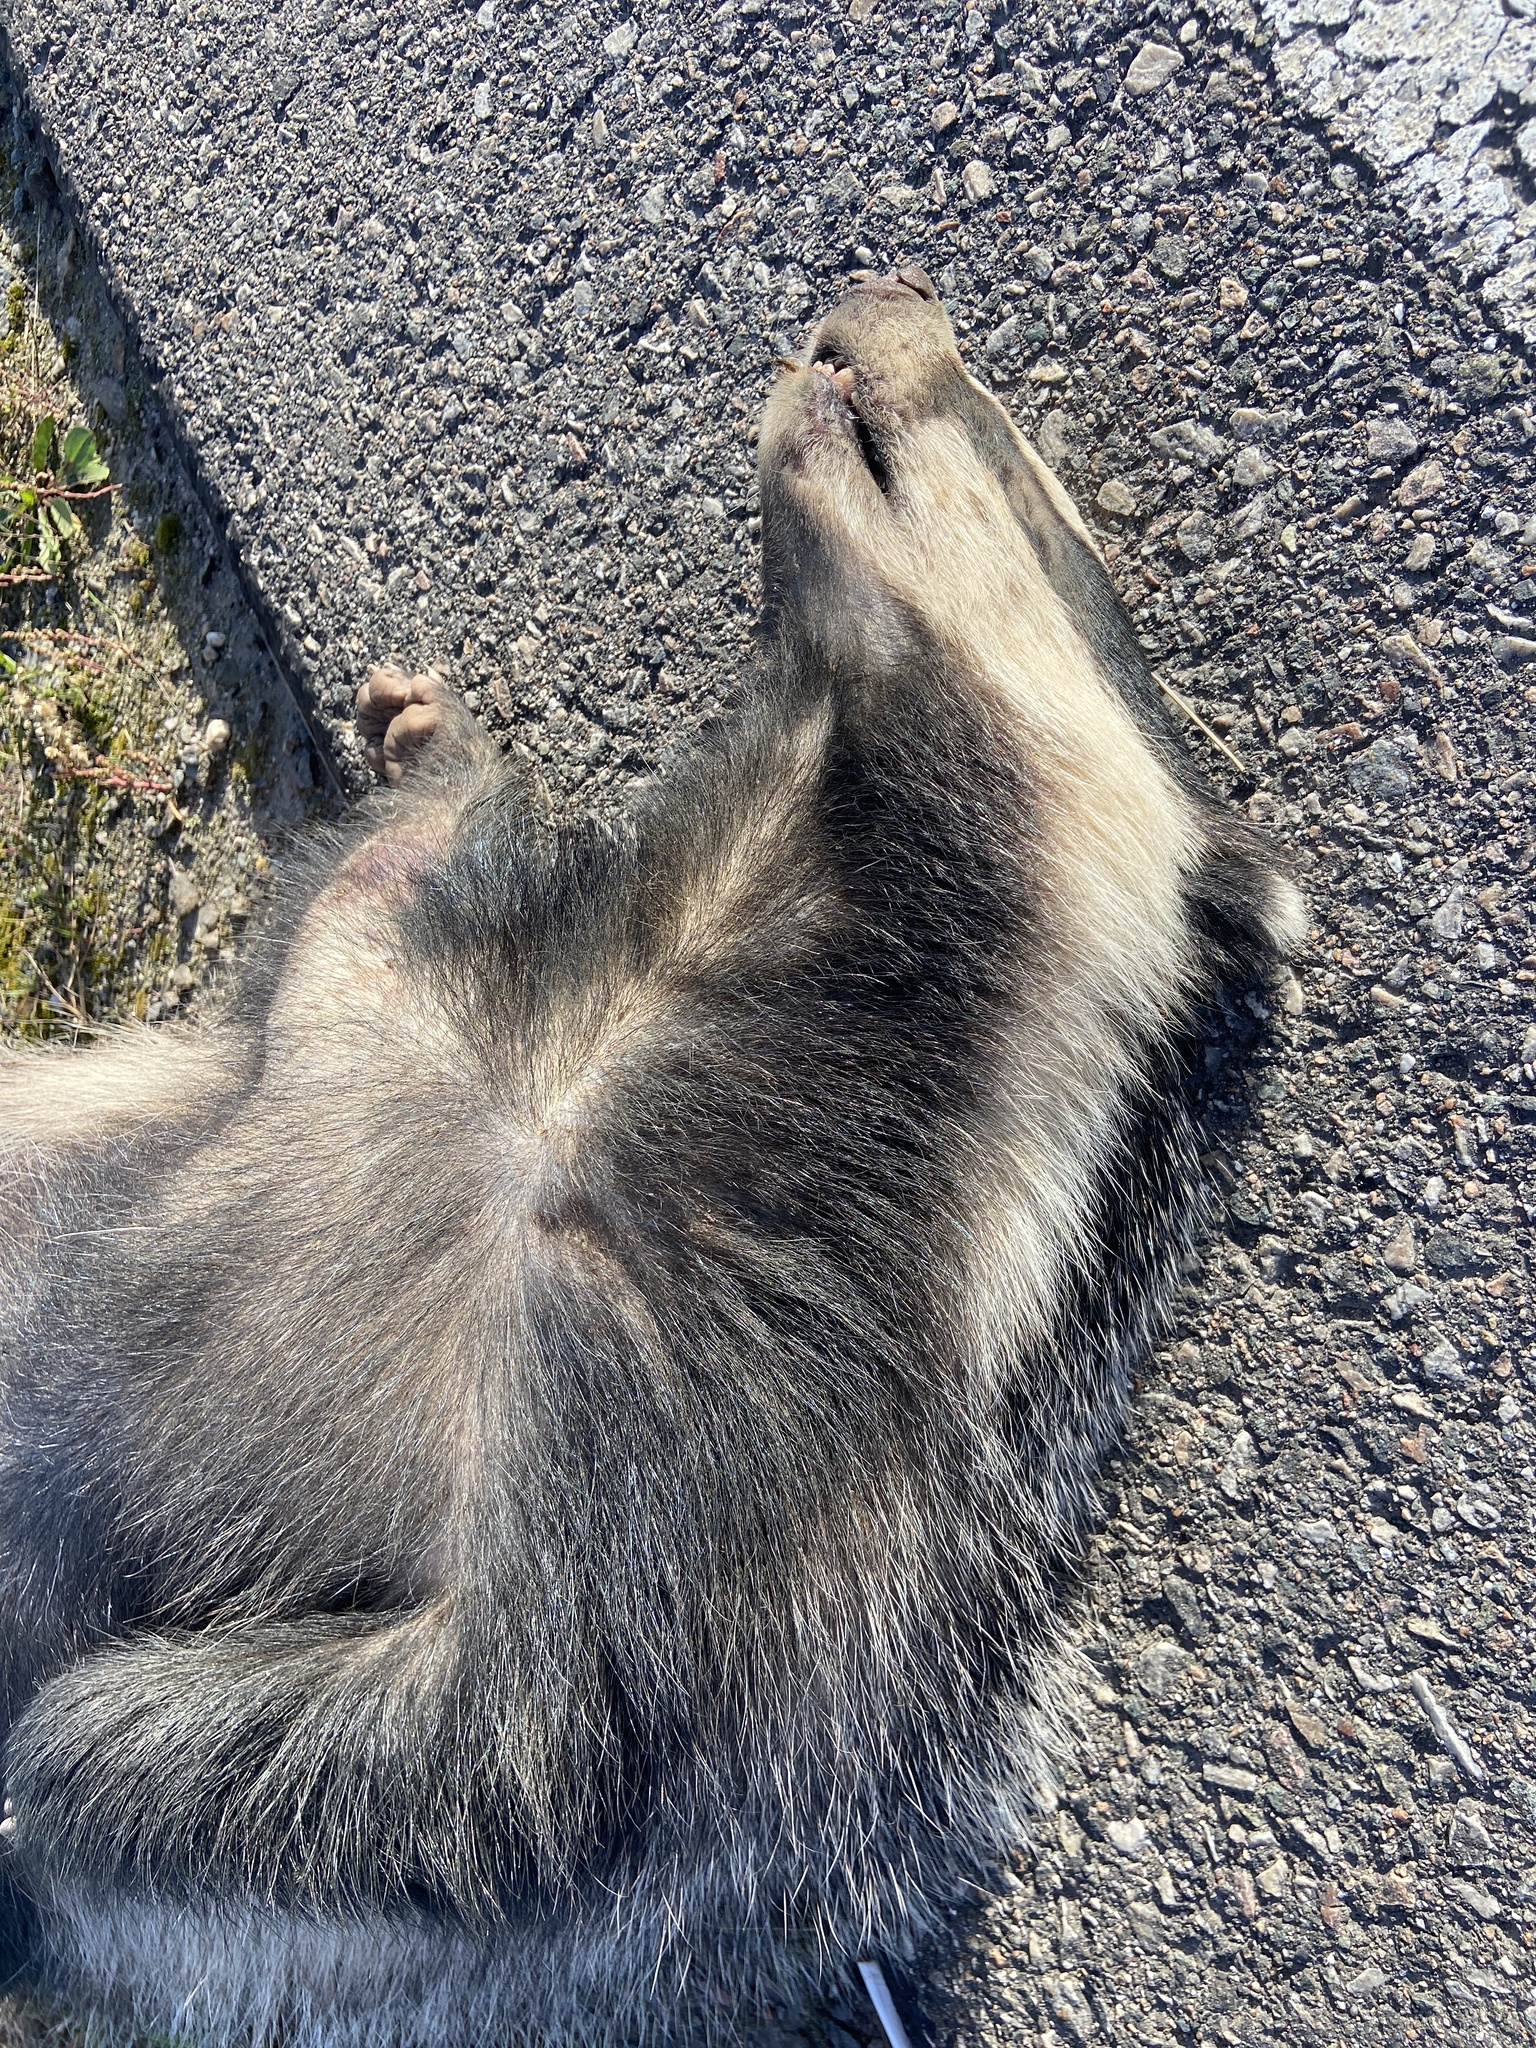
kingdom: Animalia
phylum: Chordata
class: Mammalia
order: Carnivora
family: Mustelidae
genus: Meles
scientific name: Meles meles
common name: Eurasian badger
